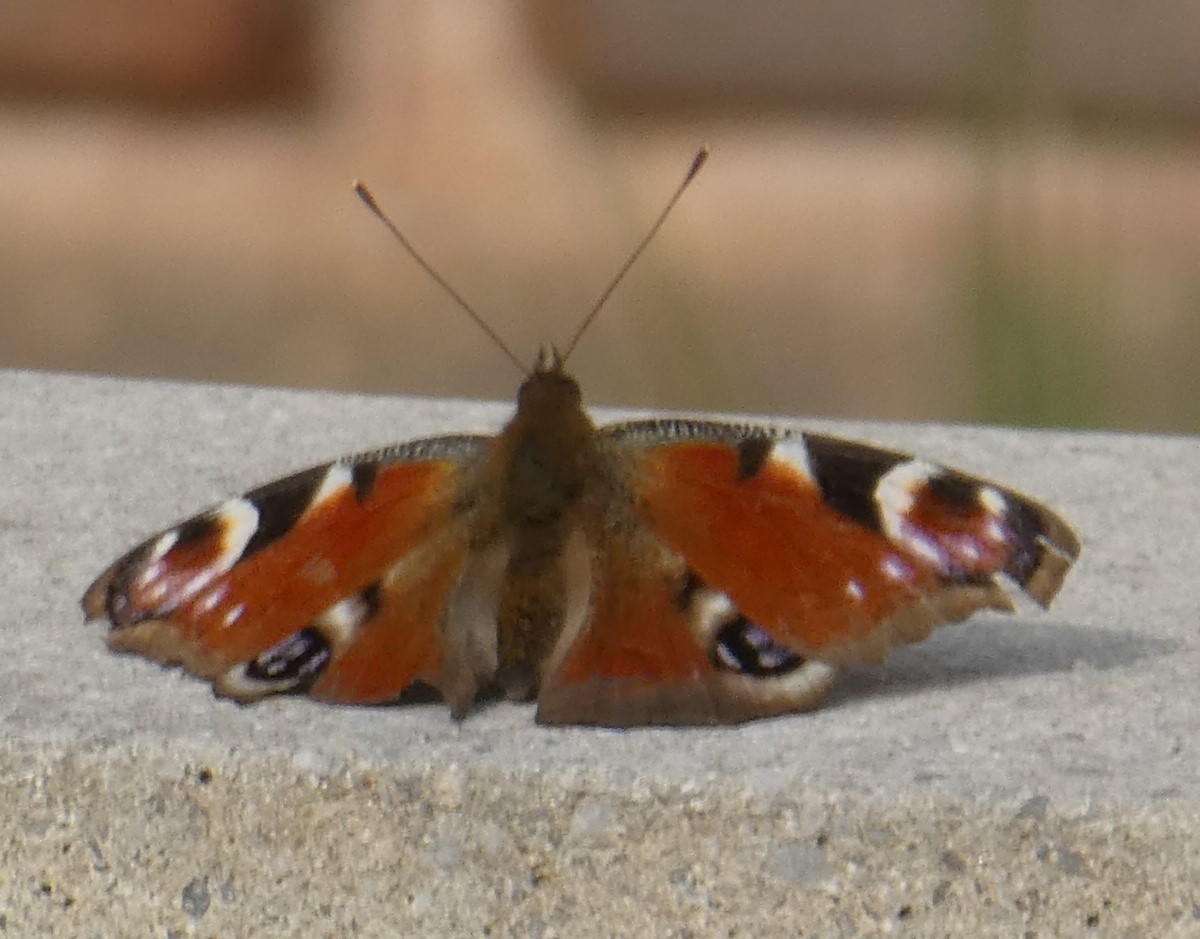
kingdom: Animalia
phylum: Arthropoda
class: Insecta
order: Lepidoptera
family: Nymphalidae
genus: Aglais
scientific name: Aglais io
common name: Peacock
